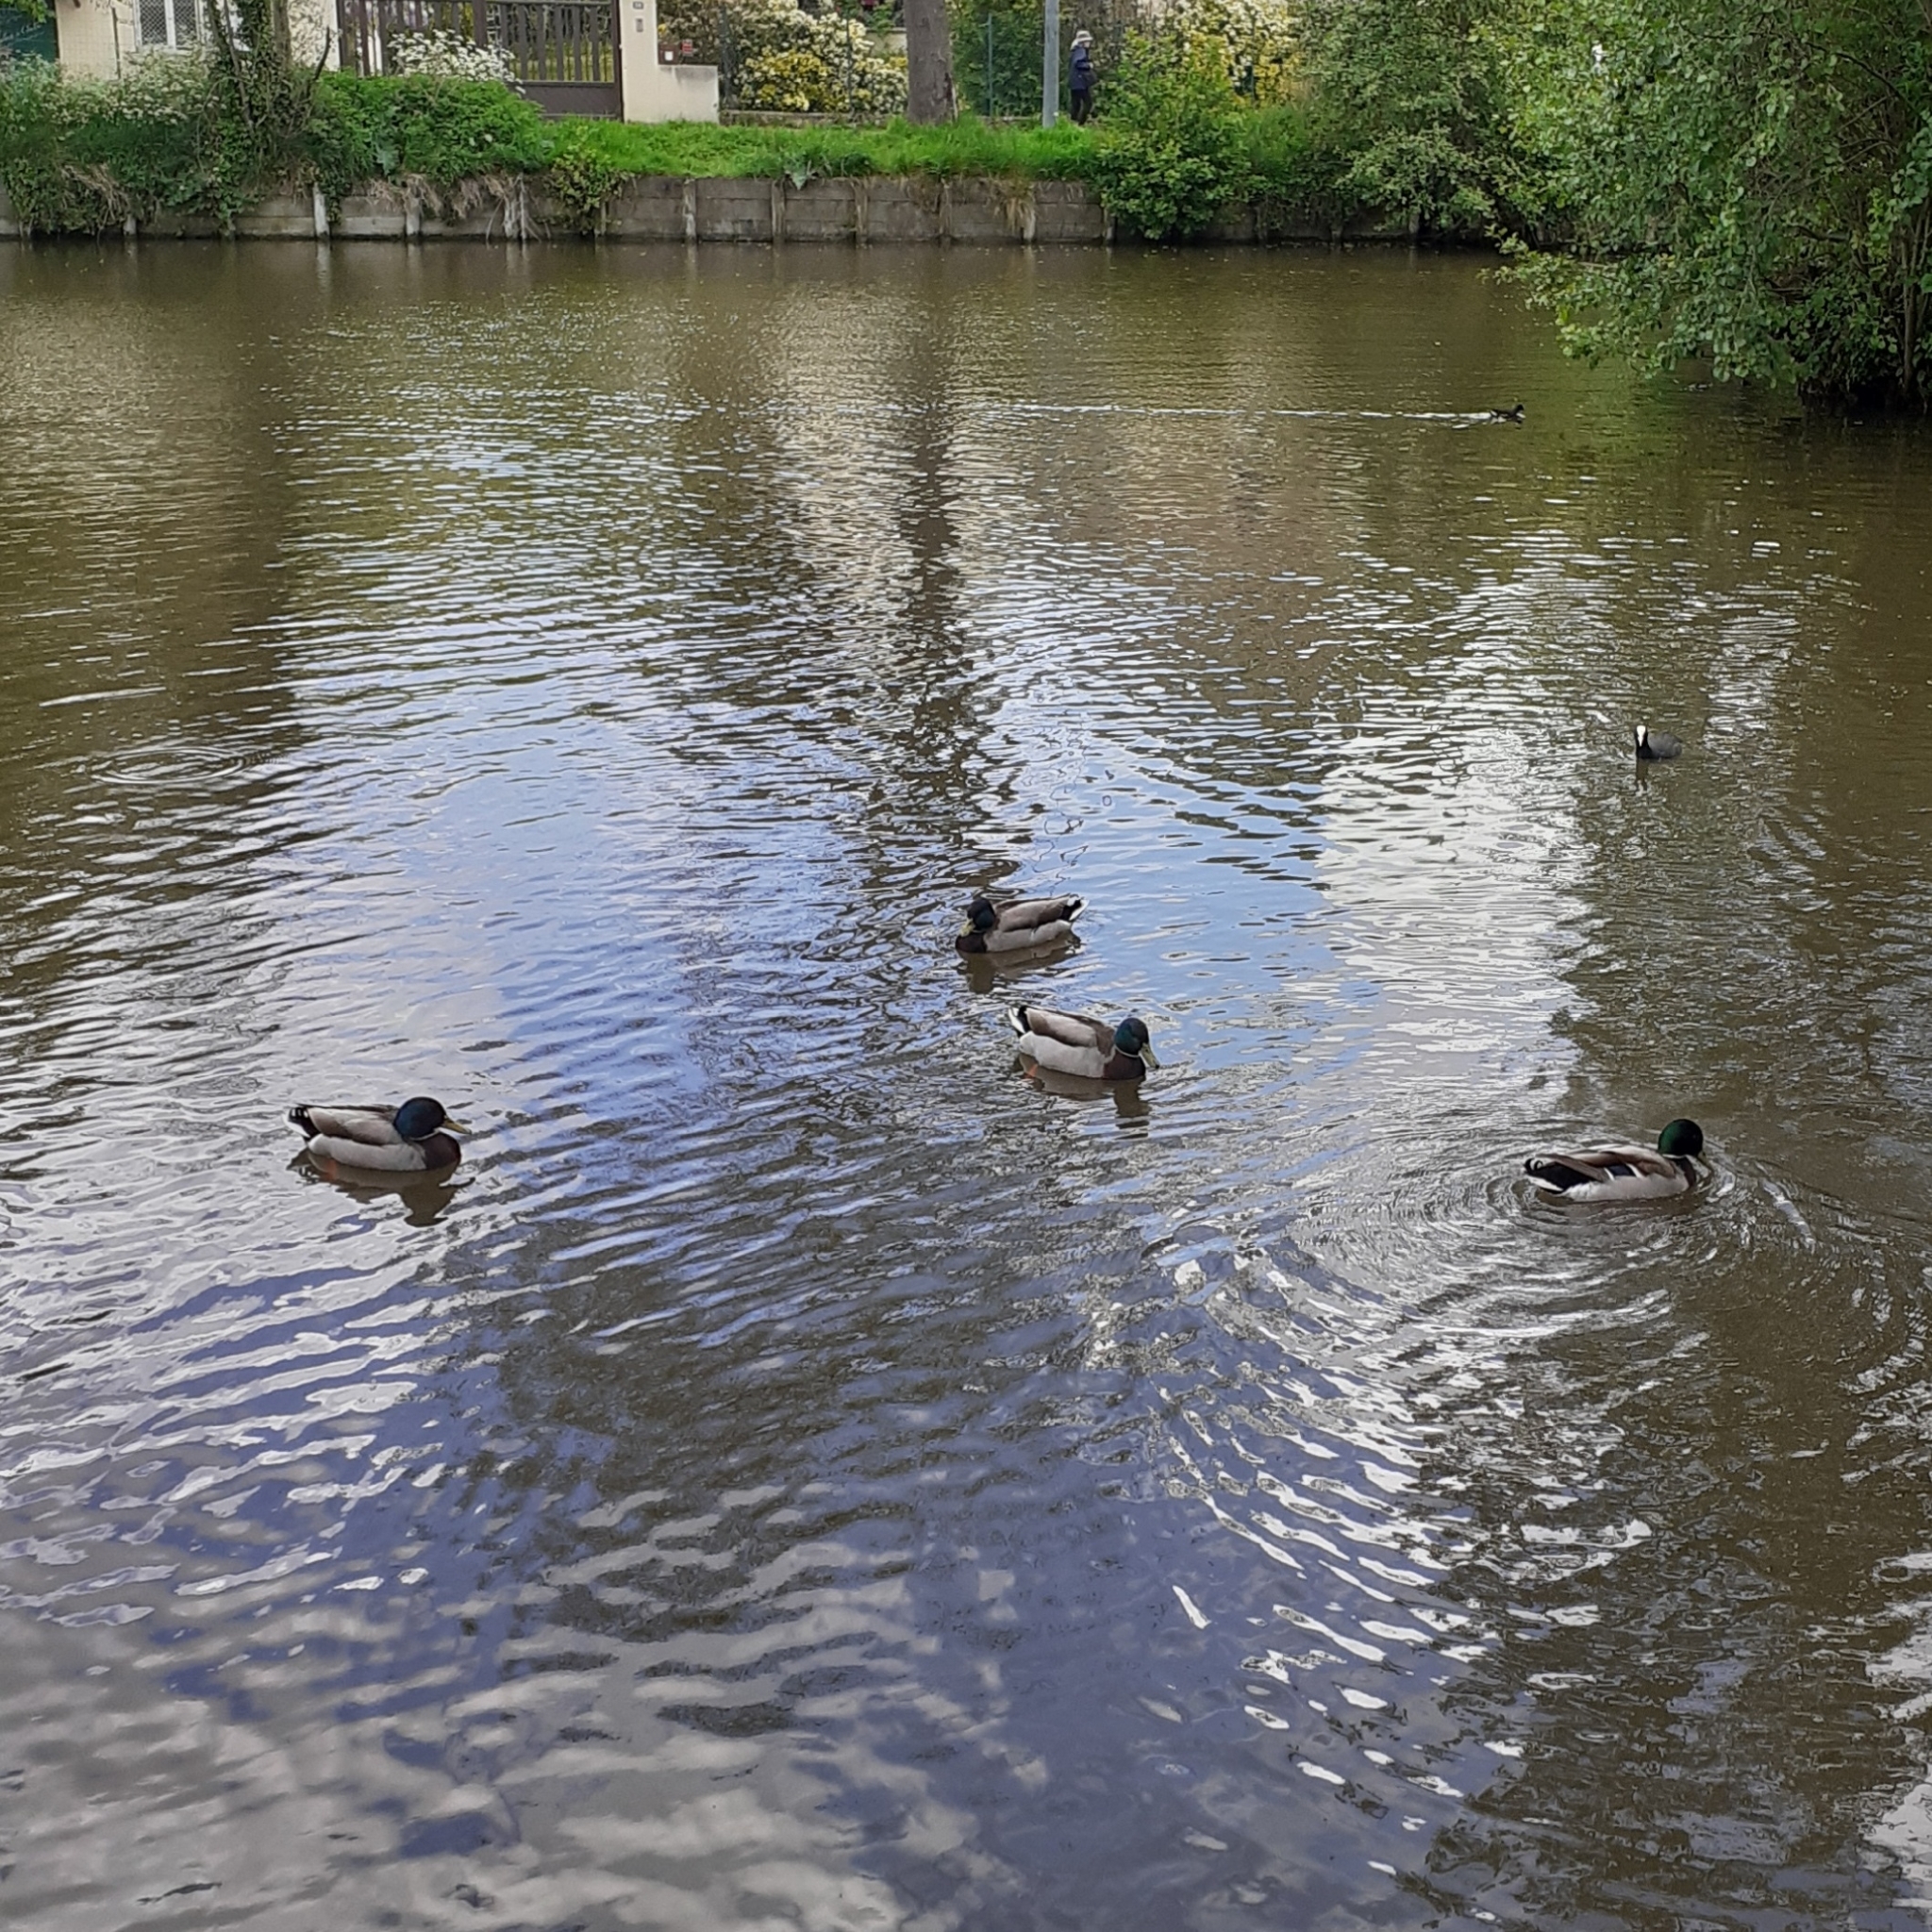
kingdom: Animalia
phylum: Chordata
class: Aves
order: Anseriformes
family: Anatidae
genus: Anas
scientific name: Anas platyrhynchos
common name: Mallard
